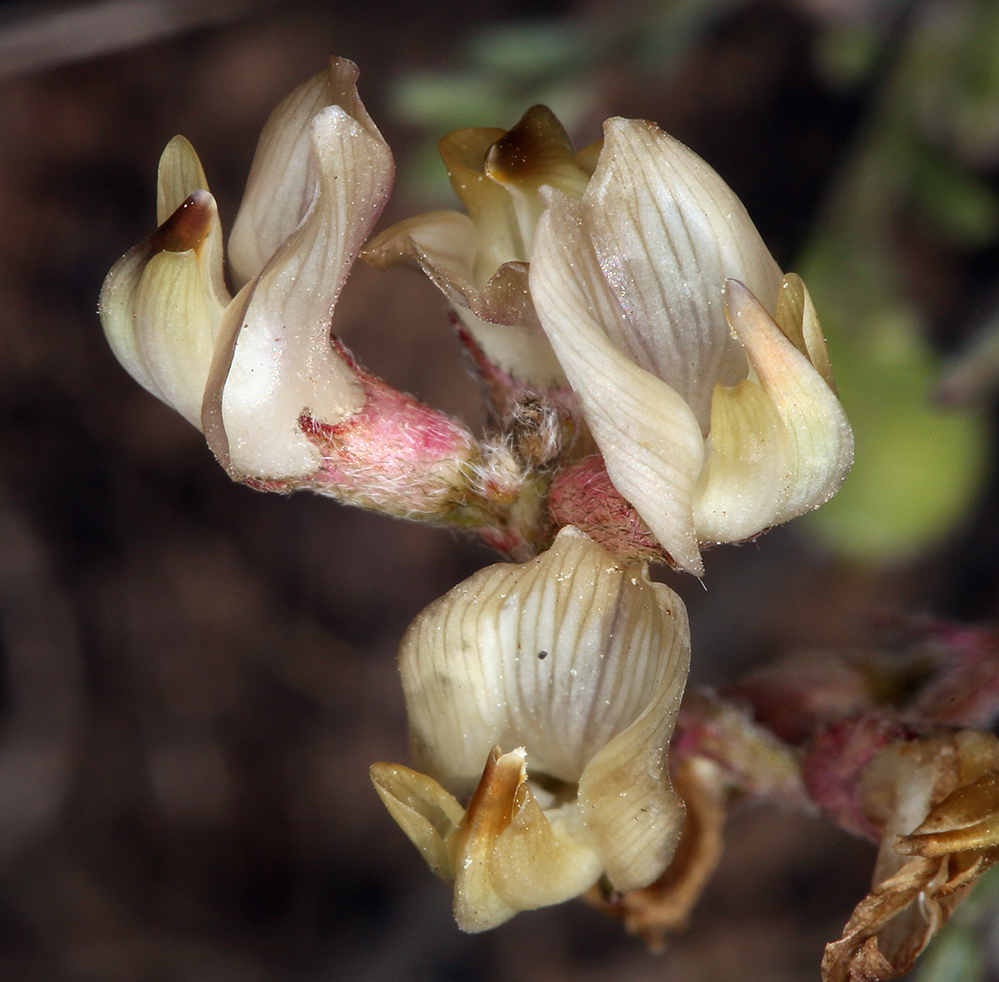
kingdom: Plantae
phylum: Tracheophyta
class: Magnoliopsida
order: Fabales
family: Fabaceae
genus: Astragalus
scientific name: Astragalus obscurus
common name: Arcane milk-vetch
